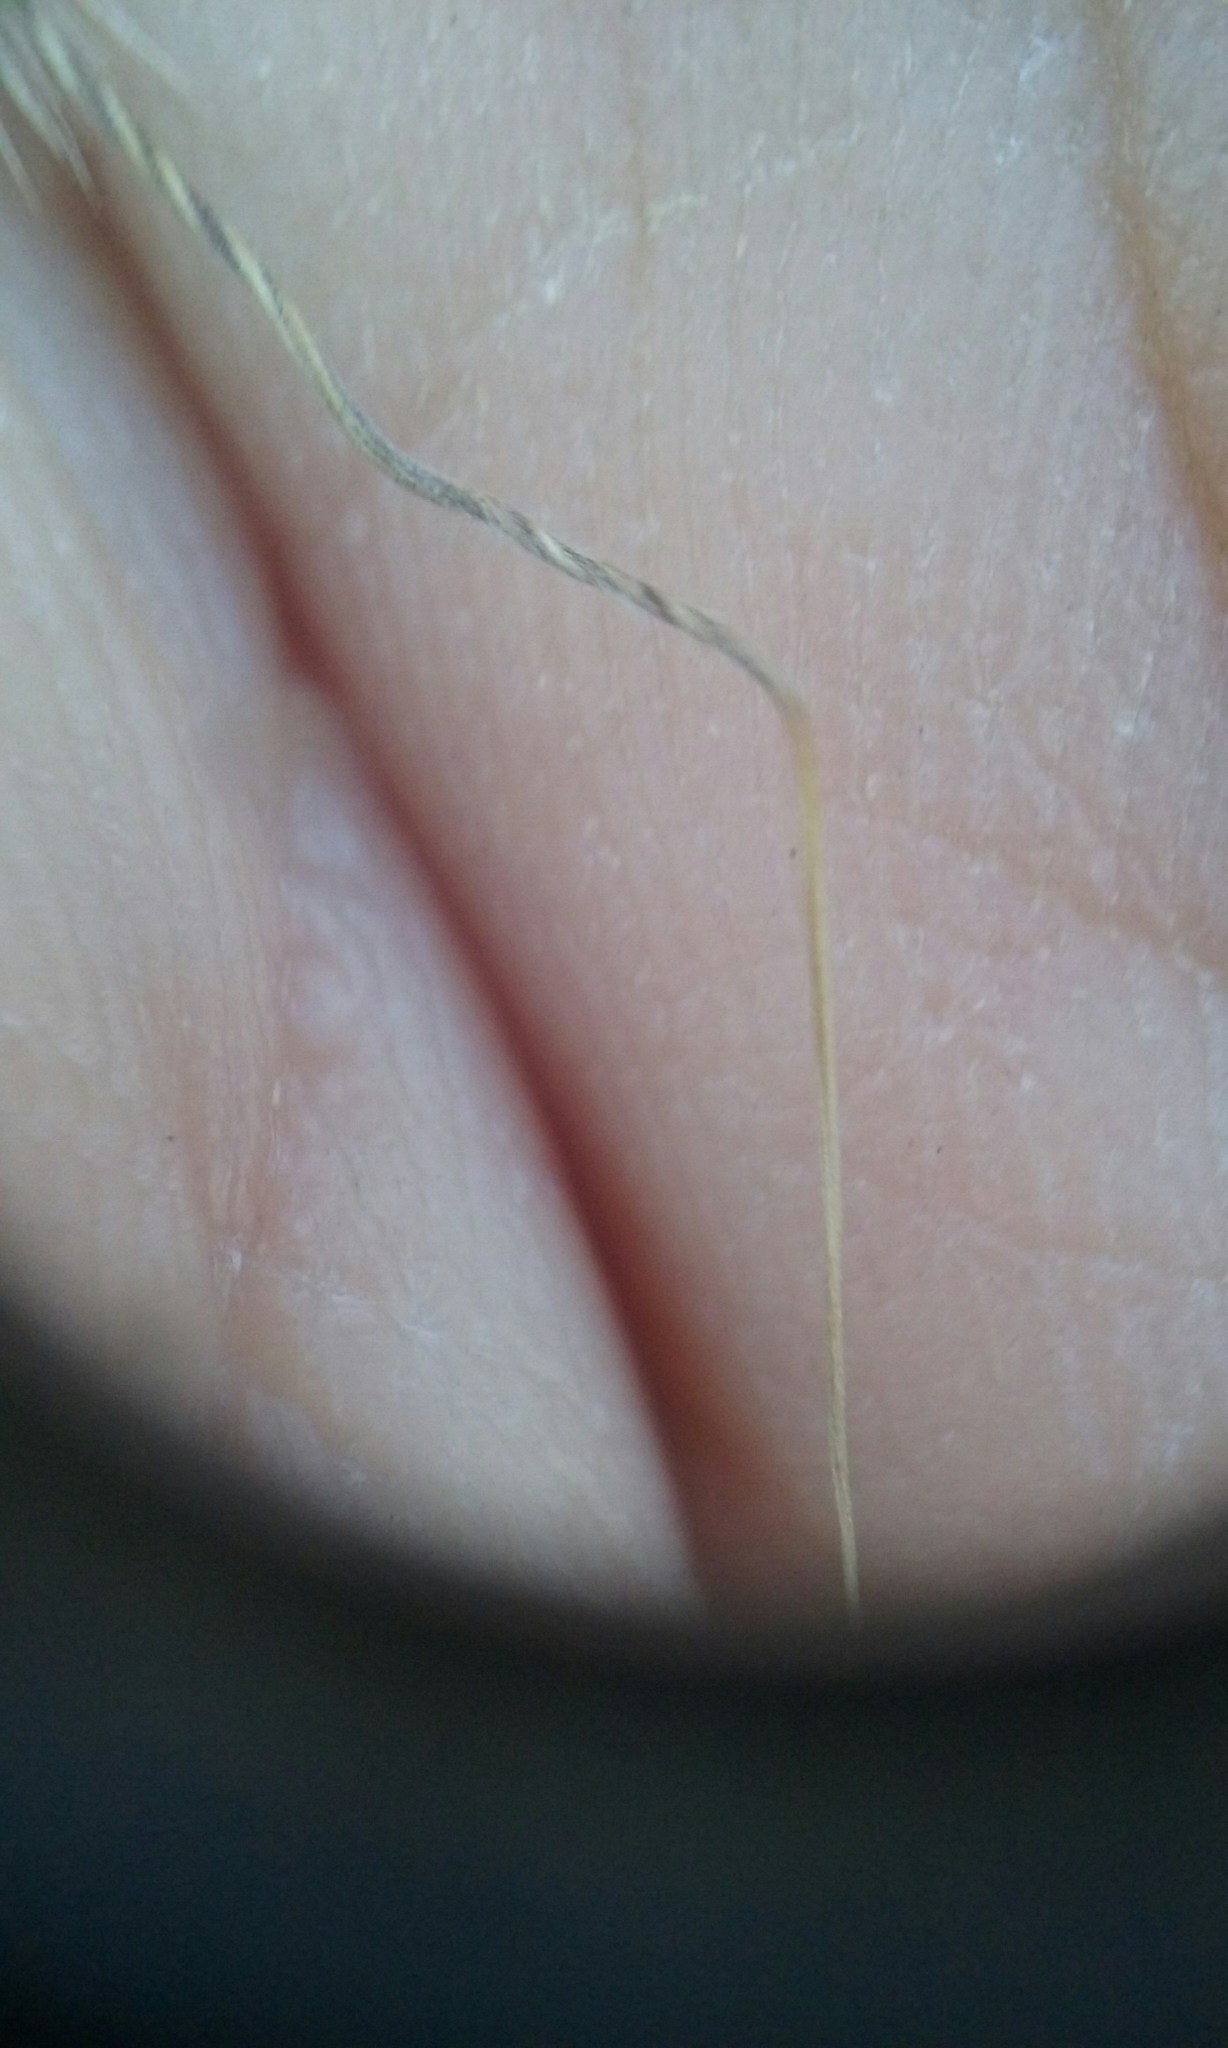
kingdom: Plantae
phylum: Tracheophyta
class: Liliopsida
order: Poales
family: Poaceae
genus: Eriocoma
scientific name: Eriocoma latiglumis
